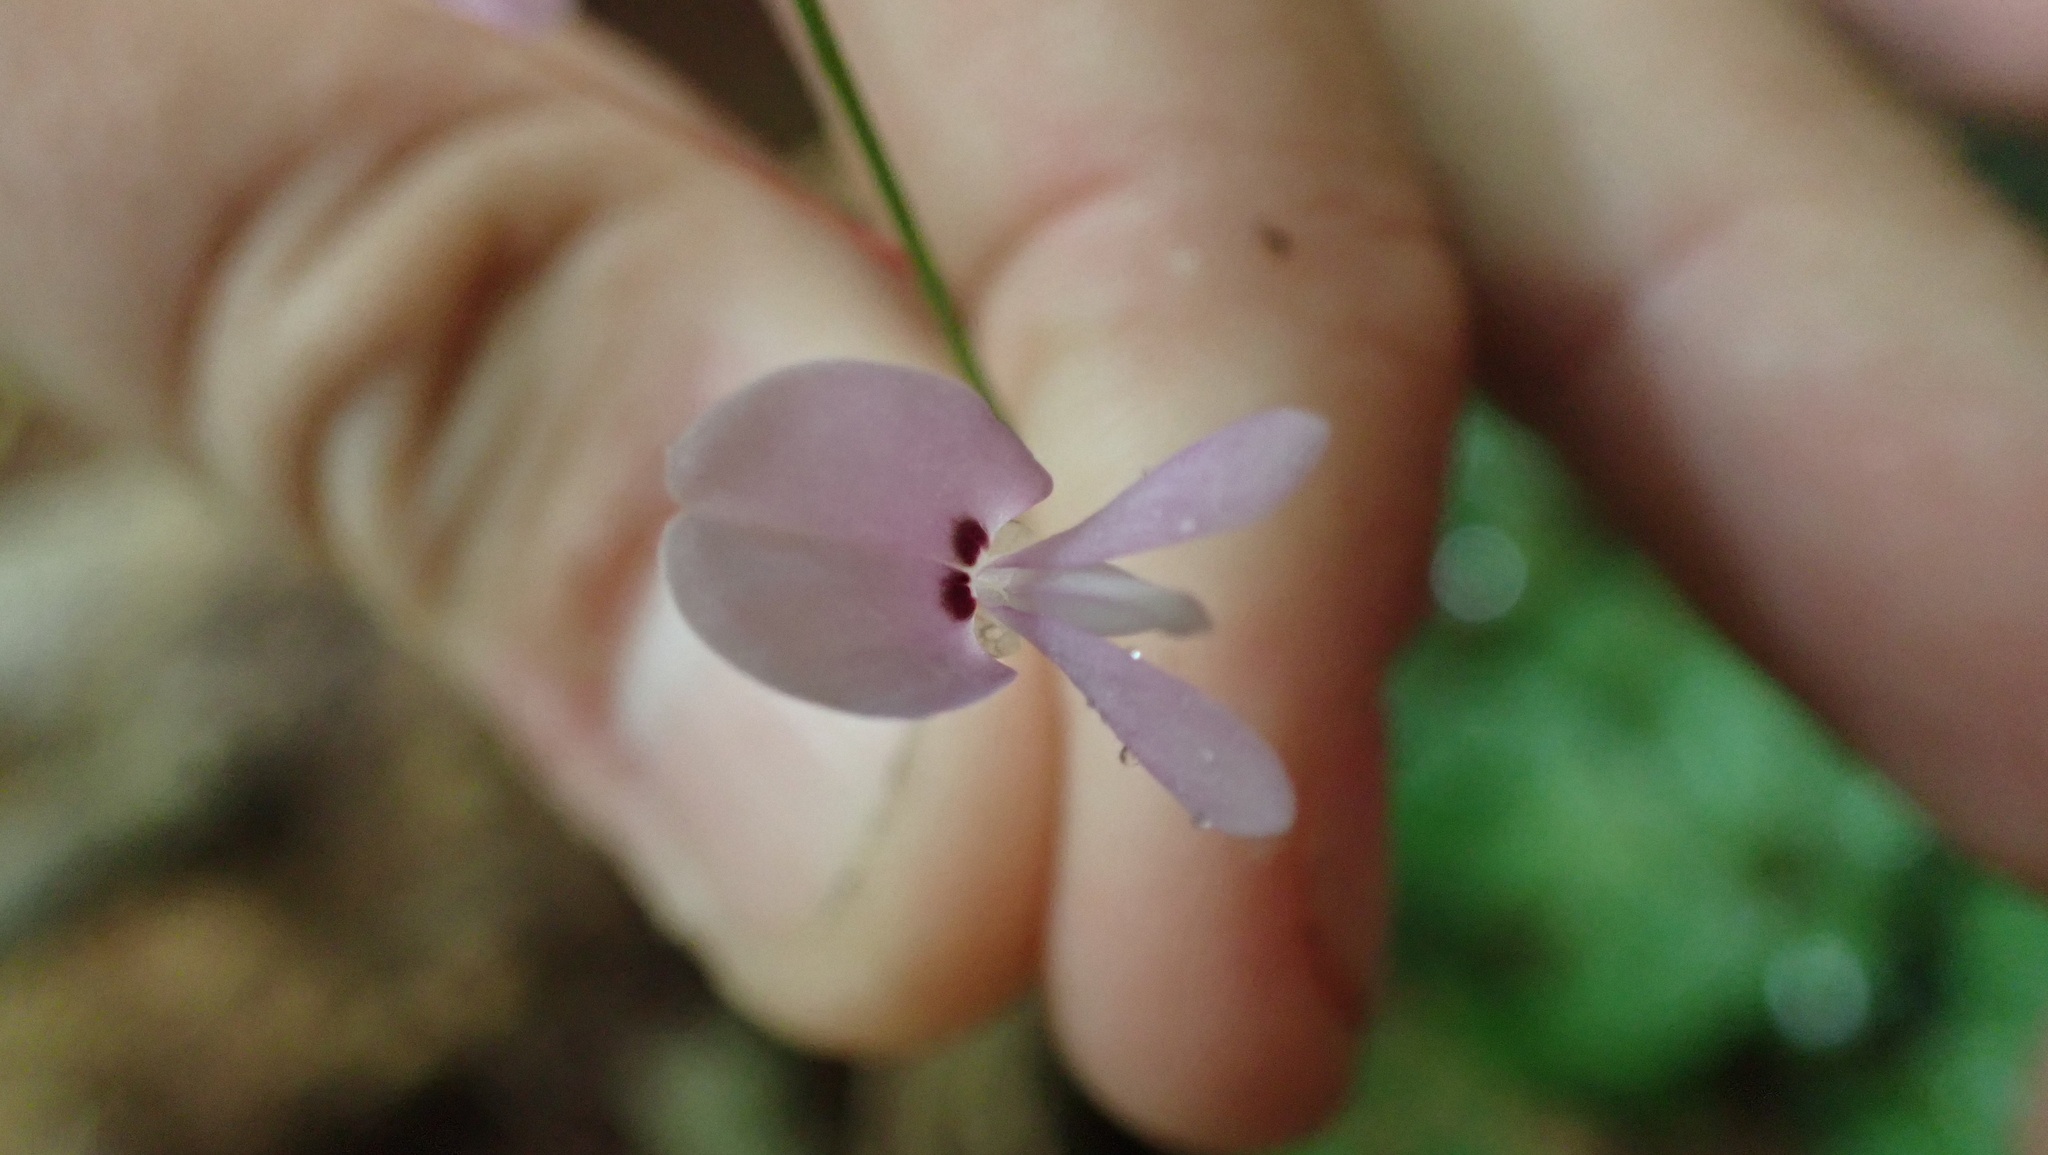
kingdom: Plantae
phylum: Tracheophyta
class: Magnoliopsida
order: Fabales
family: Fabaceae
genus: Hylodesmum
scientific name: Hylodesmum nudiflorum
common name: Bare-stemmed tick-trefoil
